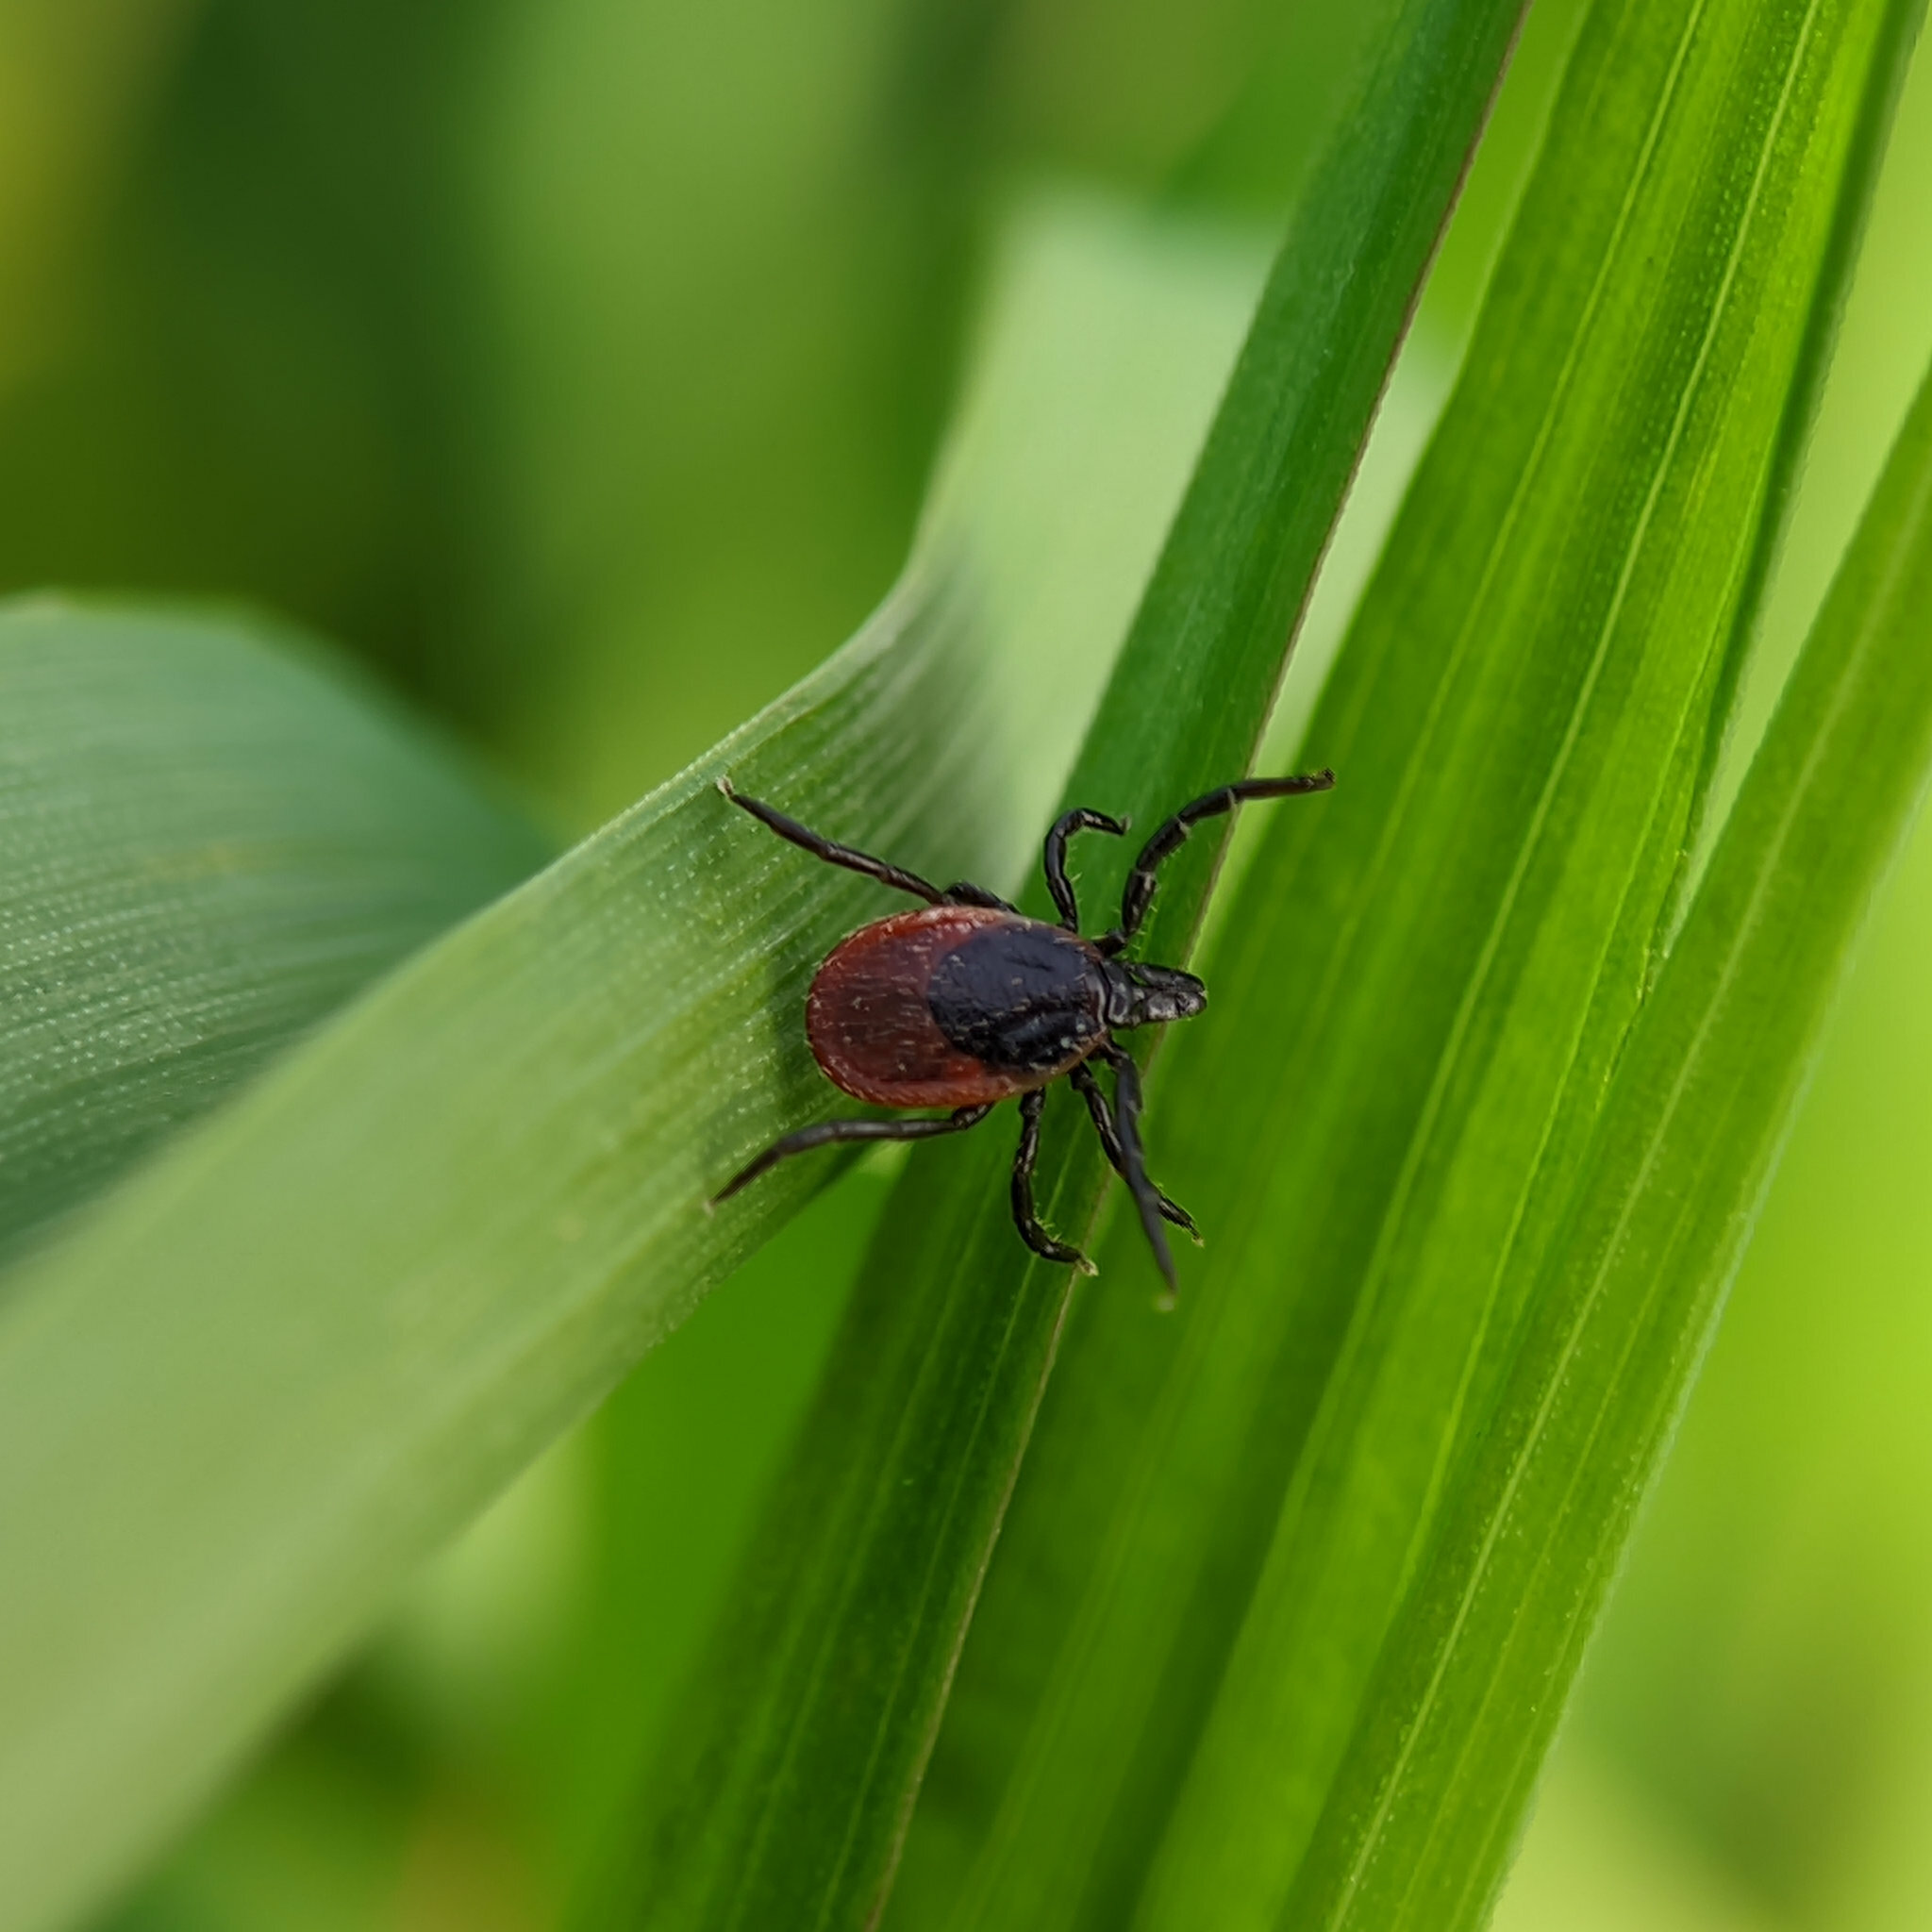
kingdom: Animalia
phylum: Arthropoda
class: Arachnida
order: Ixodida
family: Ixodidae
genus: Ixodes
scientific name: Ixodes ricinus
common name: Castor bean tick
